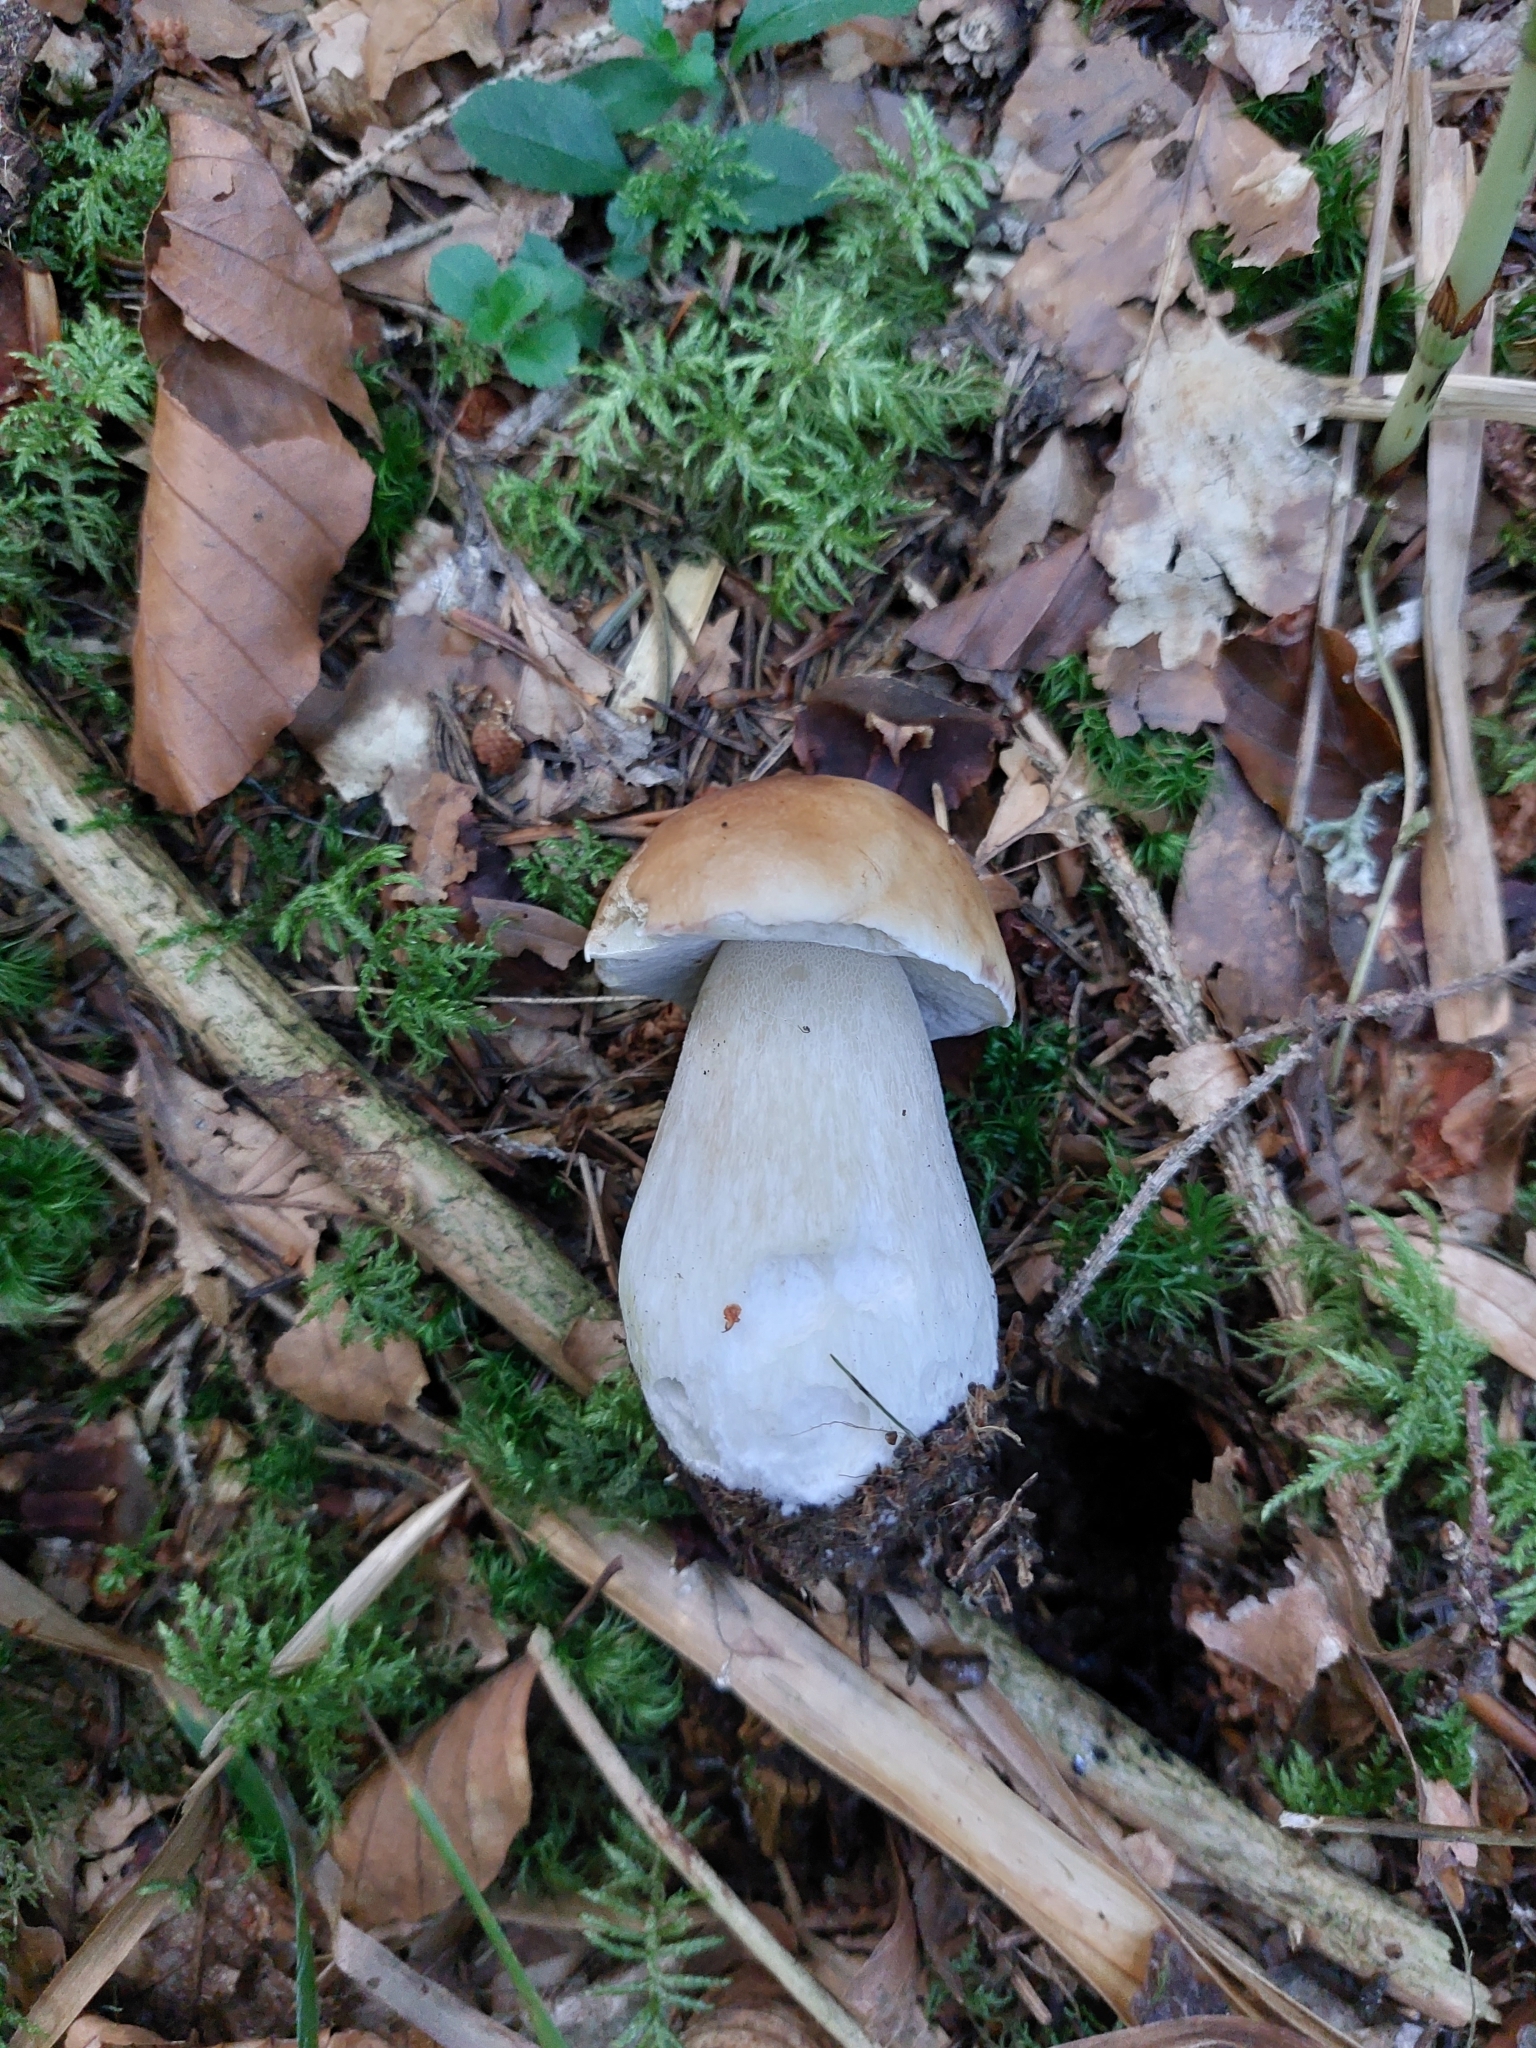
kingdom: Fungi
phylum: Basidiomycota
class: Agaricomycetes
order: Boletales
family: Boletaceae
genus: Boletus
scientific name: Boletus edulis
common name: Cep
